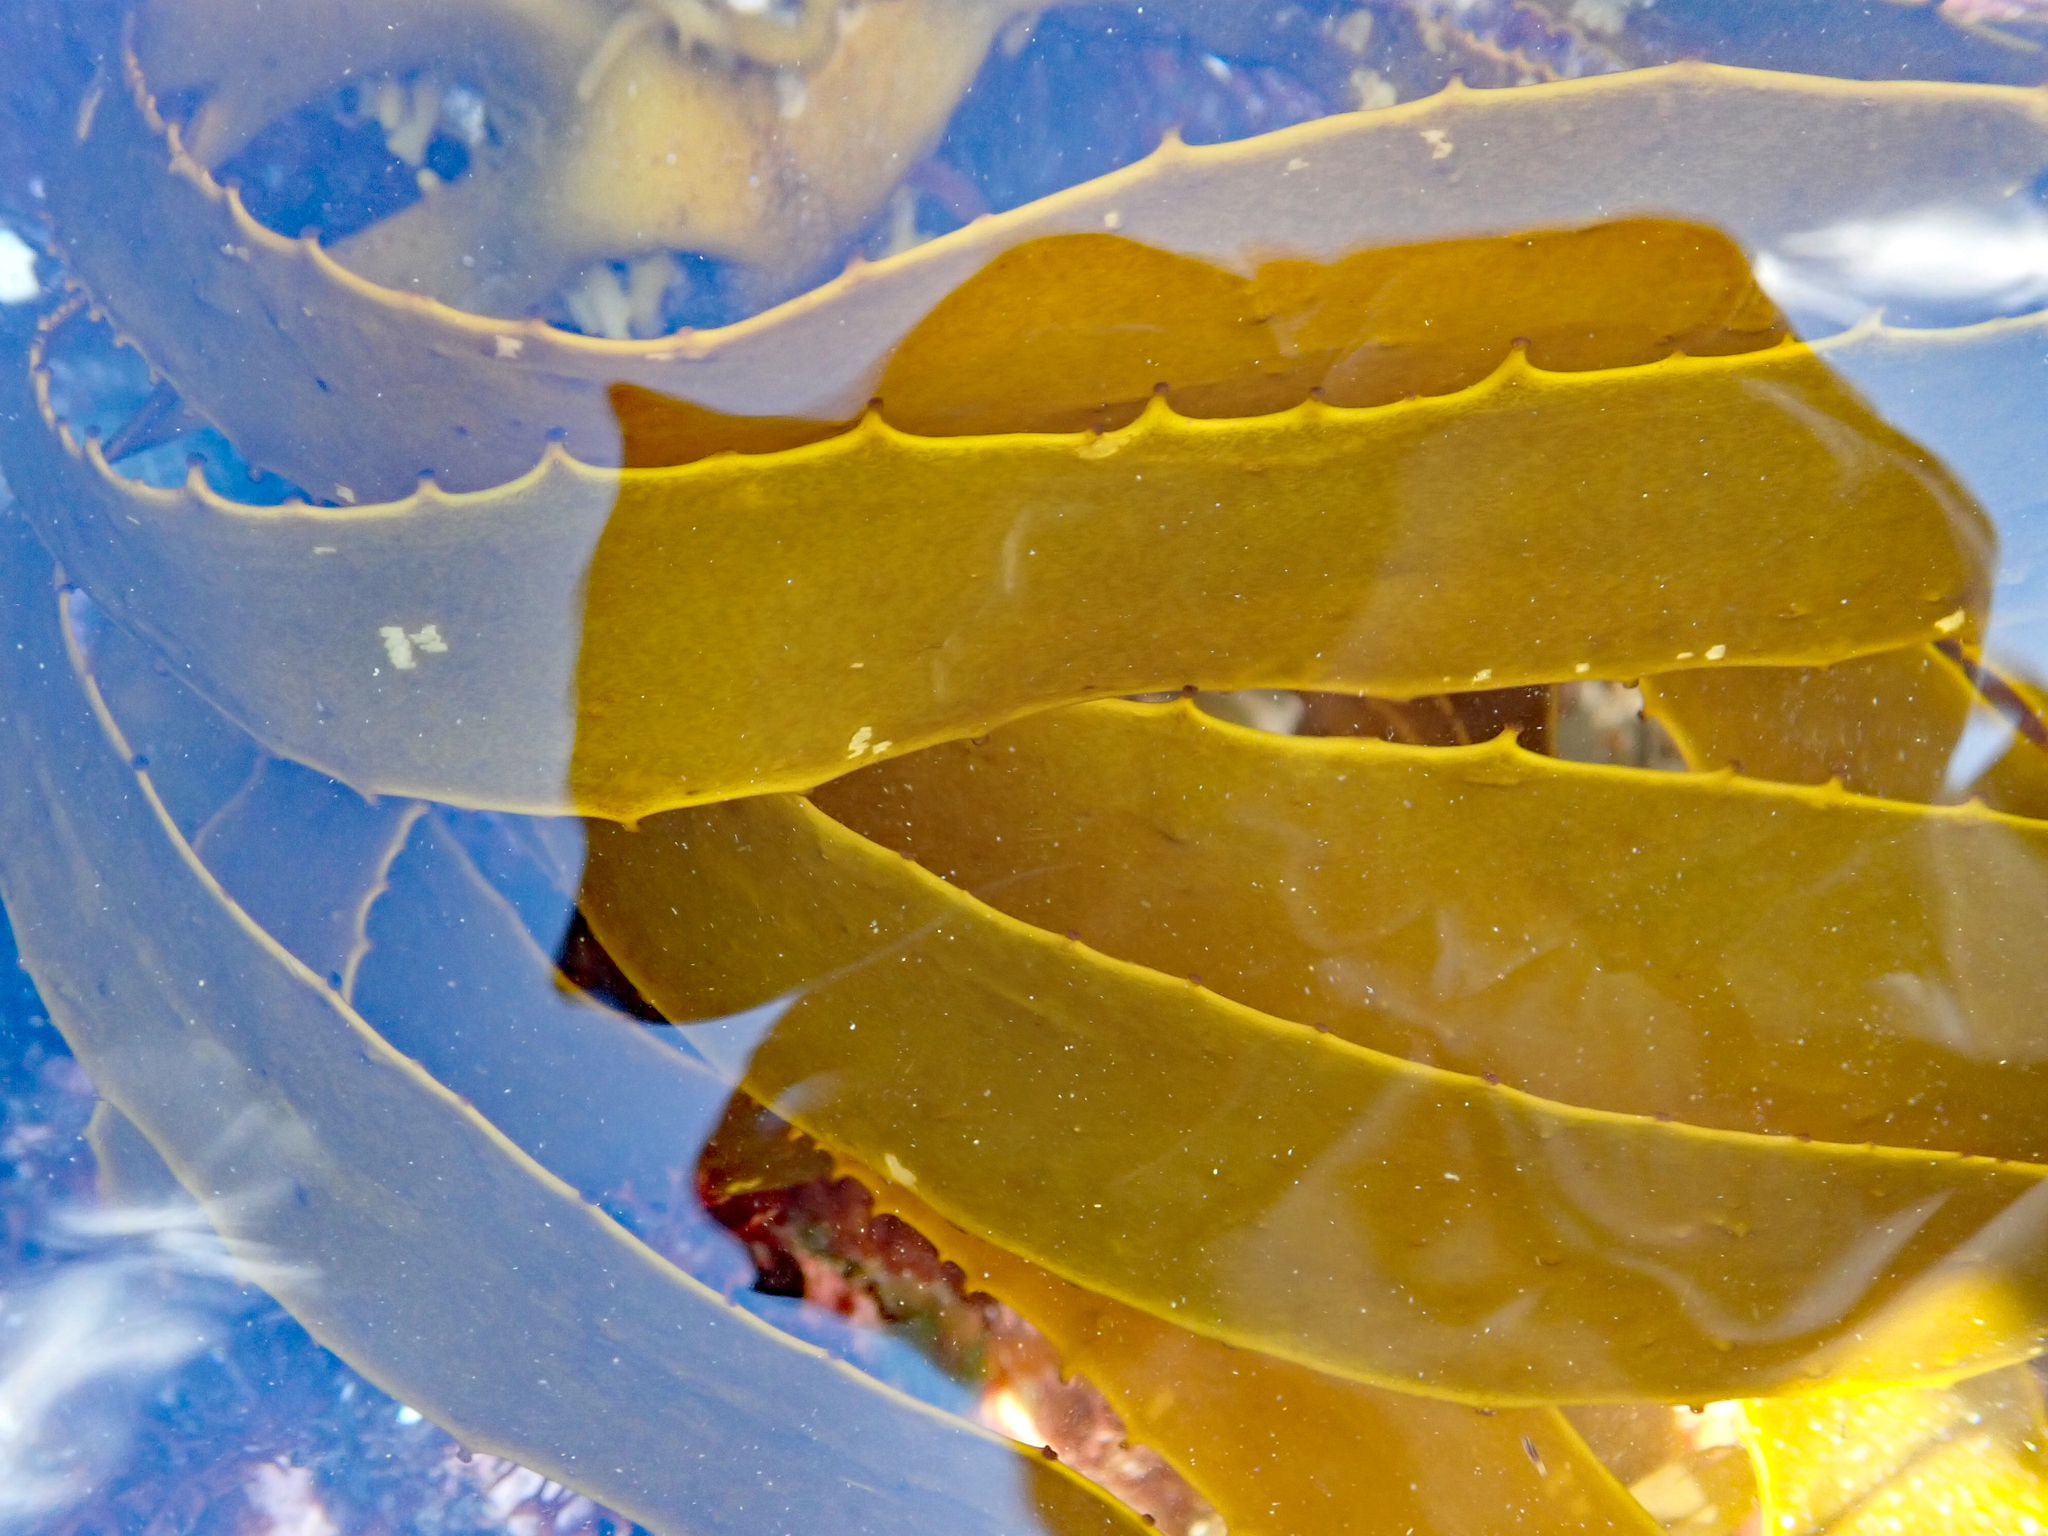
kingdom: Chromista
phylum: Ochrophyta
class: Phaeophyceae
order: Laminariales
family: Lessoniaceae
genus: Lessonia
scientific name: Lessonia
